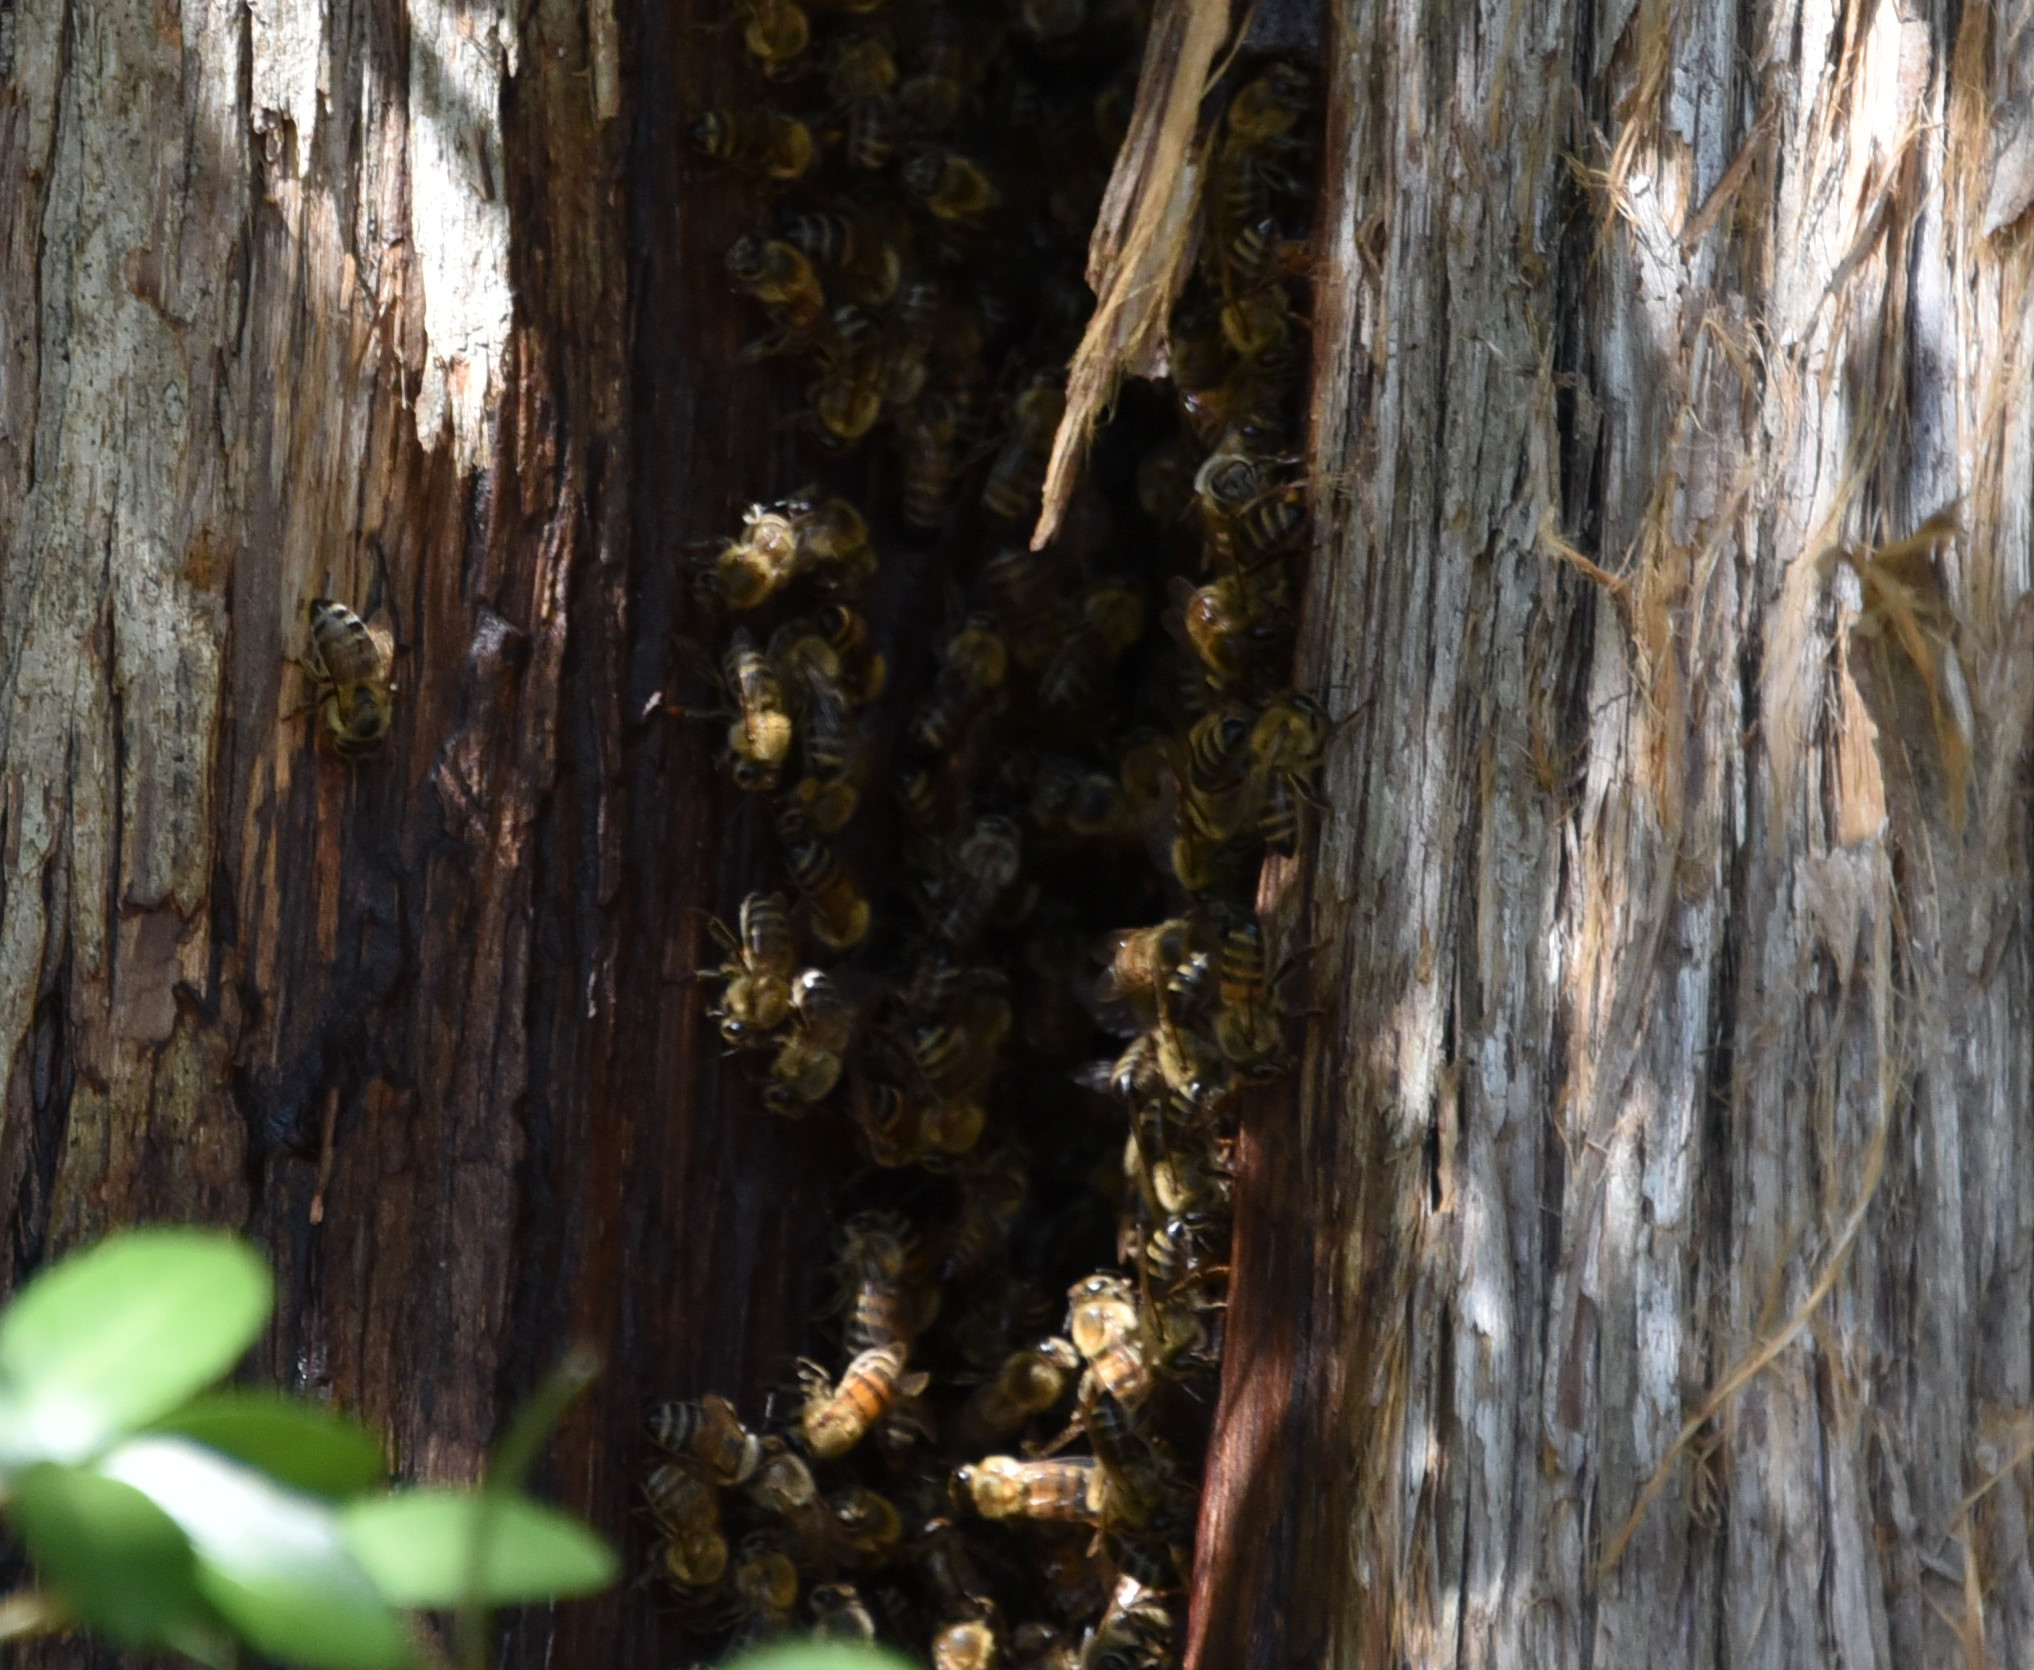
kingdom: Animalia
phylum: Arthropoda
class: Insecta
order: Hymenoptera
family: Apidae
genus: Apis
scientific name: Apis mellifera
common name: Honey bee
